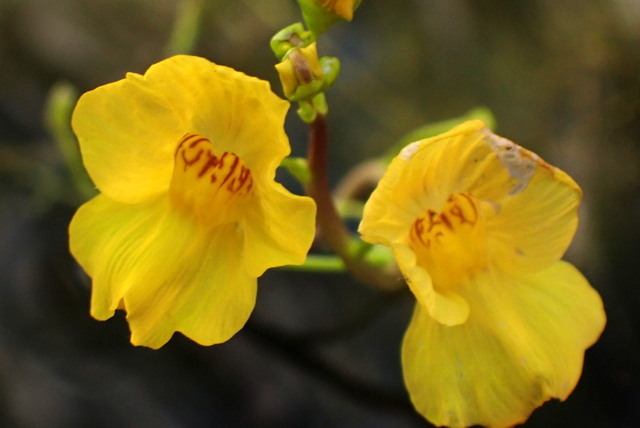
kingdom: Plantae
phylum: Tracheophyta
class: Magnoliopsida
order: Lamiales
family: Lentibulariaceae
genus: Utricularia
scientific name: Utricularia floridana
